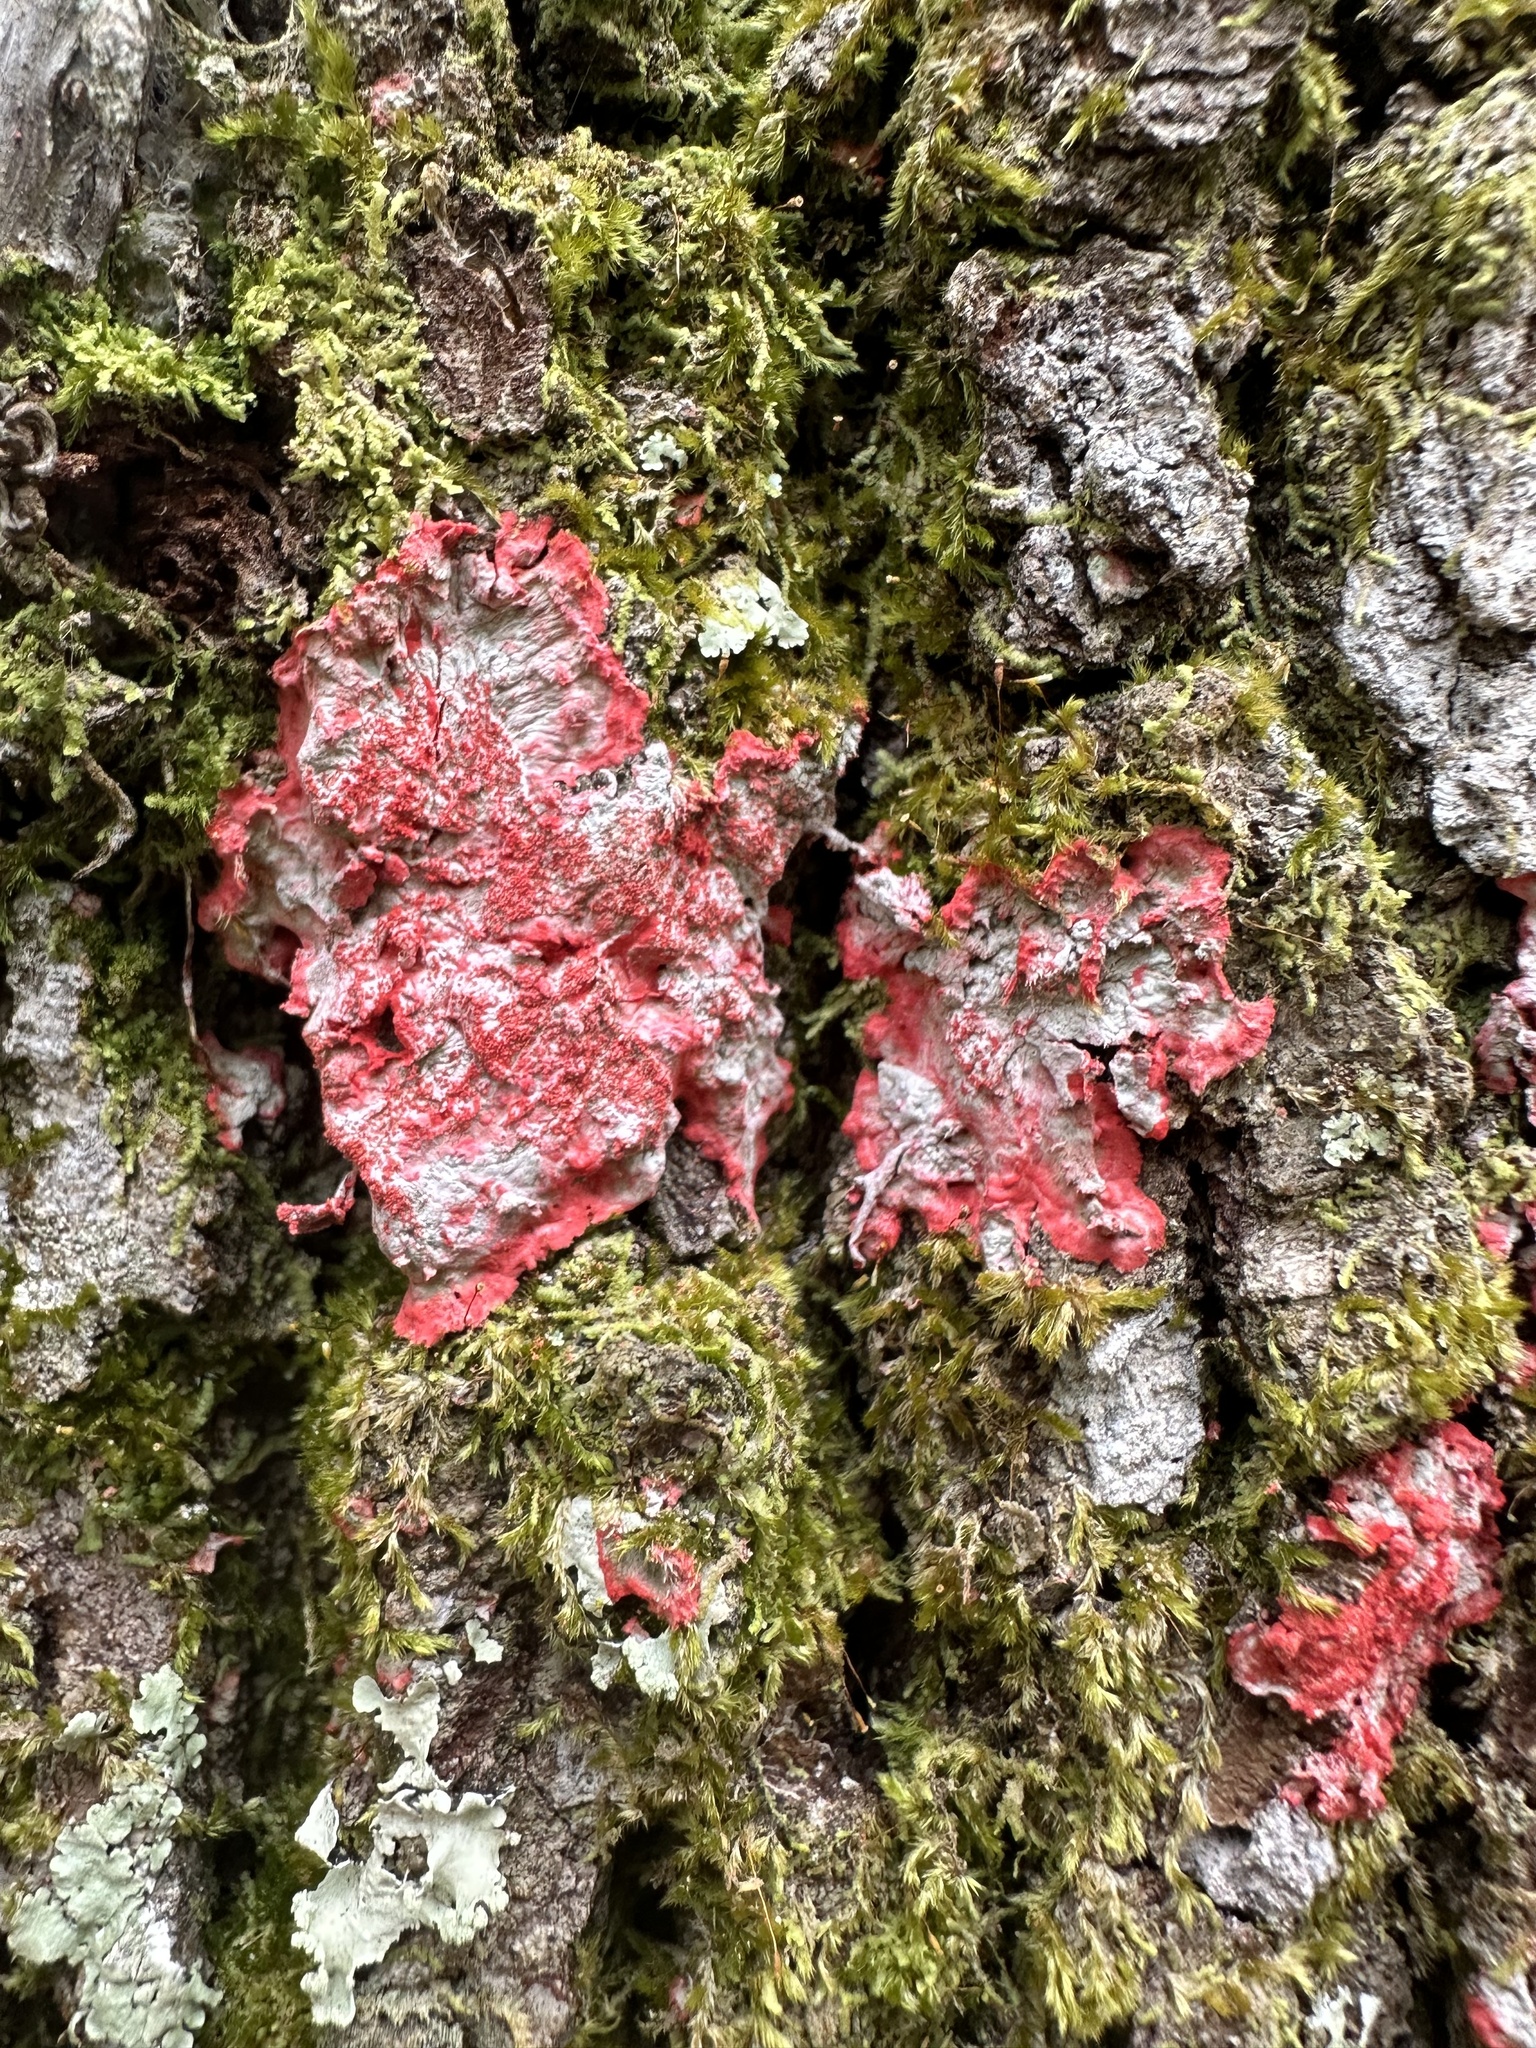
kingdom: Fungi
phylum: Ascomycota
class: Arthoniomycetes
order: Arthoniales
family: Arthoniaceae
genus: Herpothallon
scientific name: Herpothallon rubrocinctum
